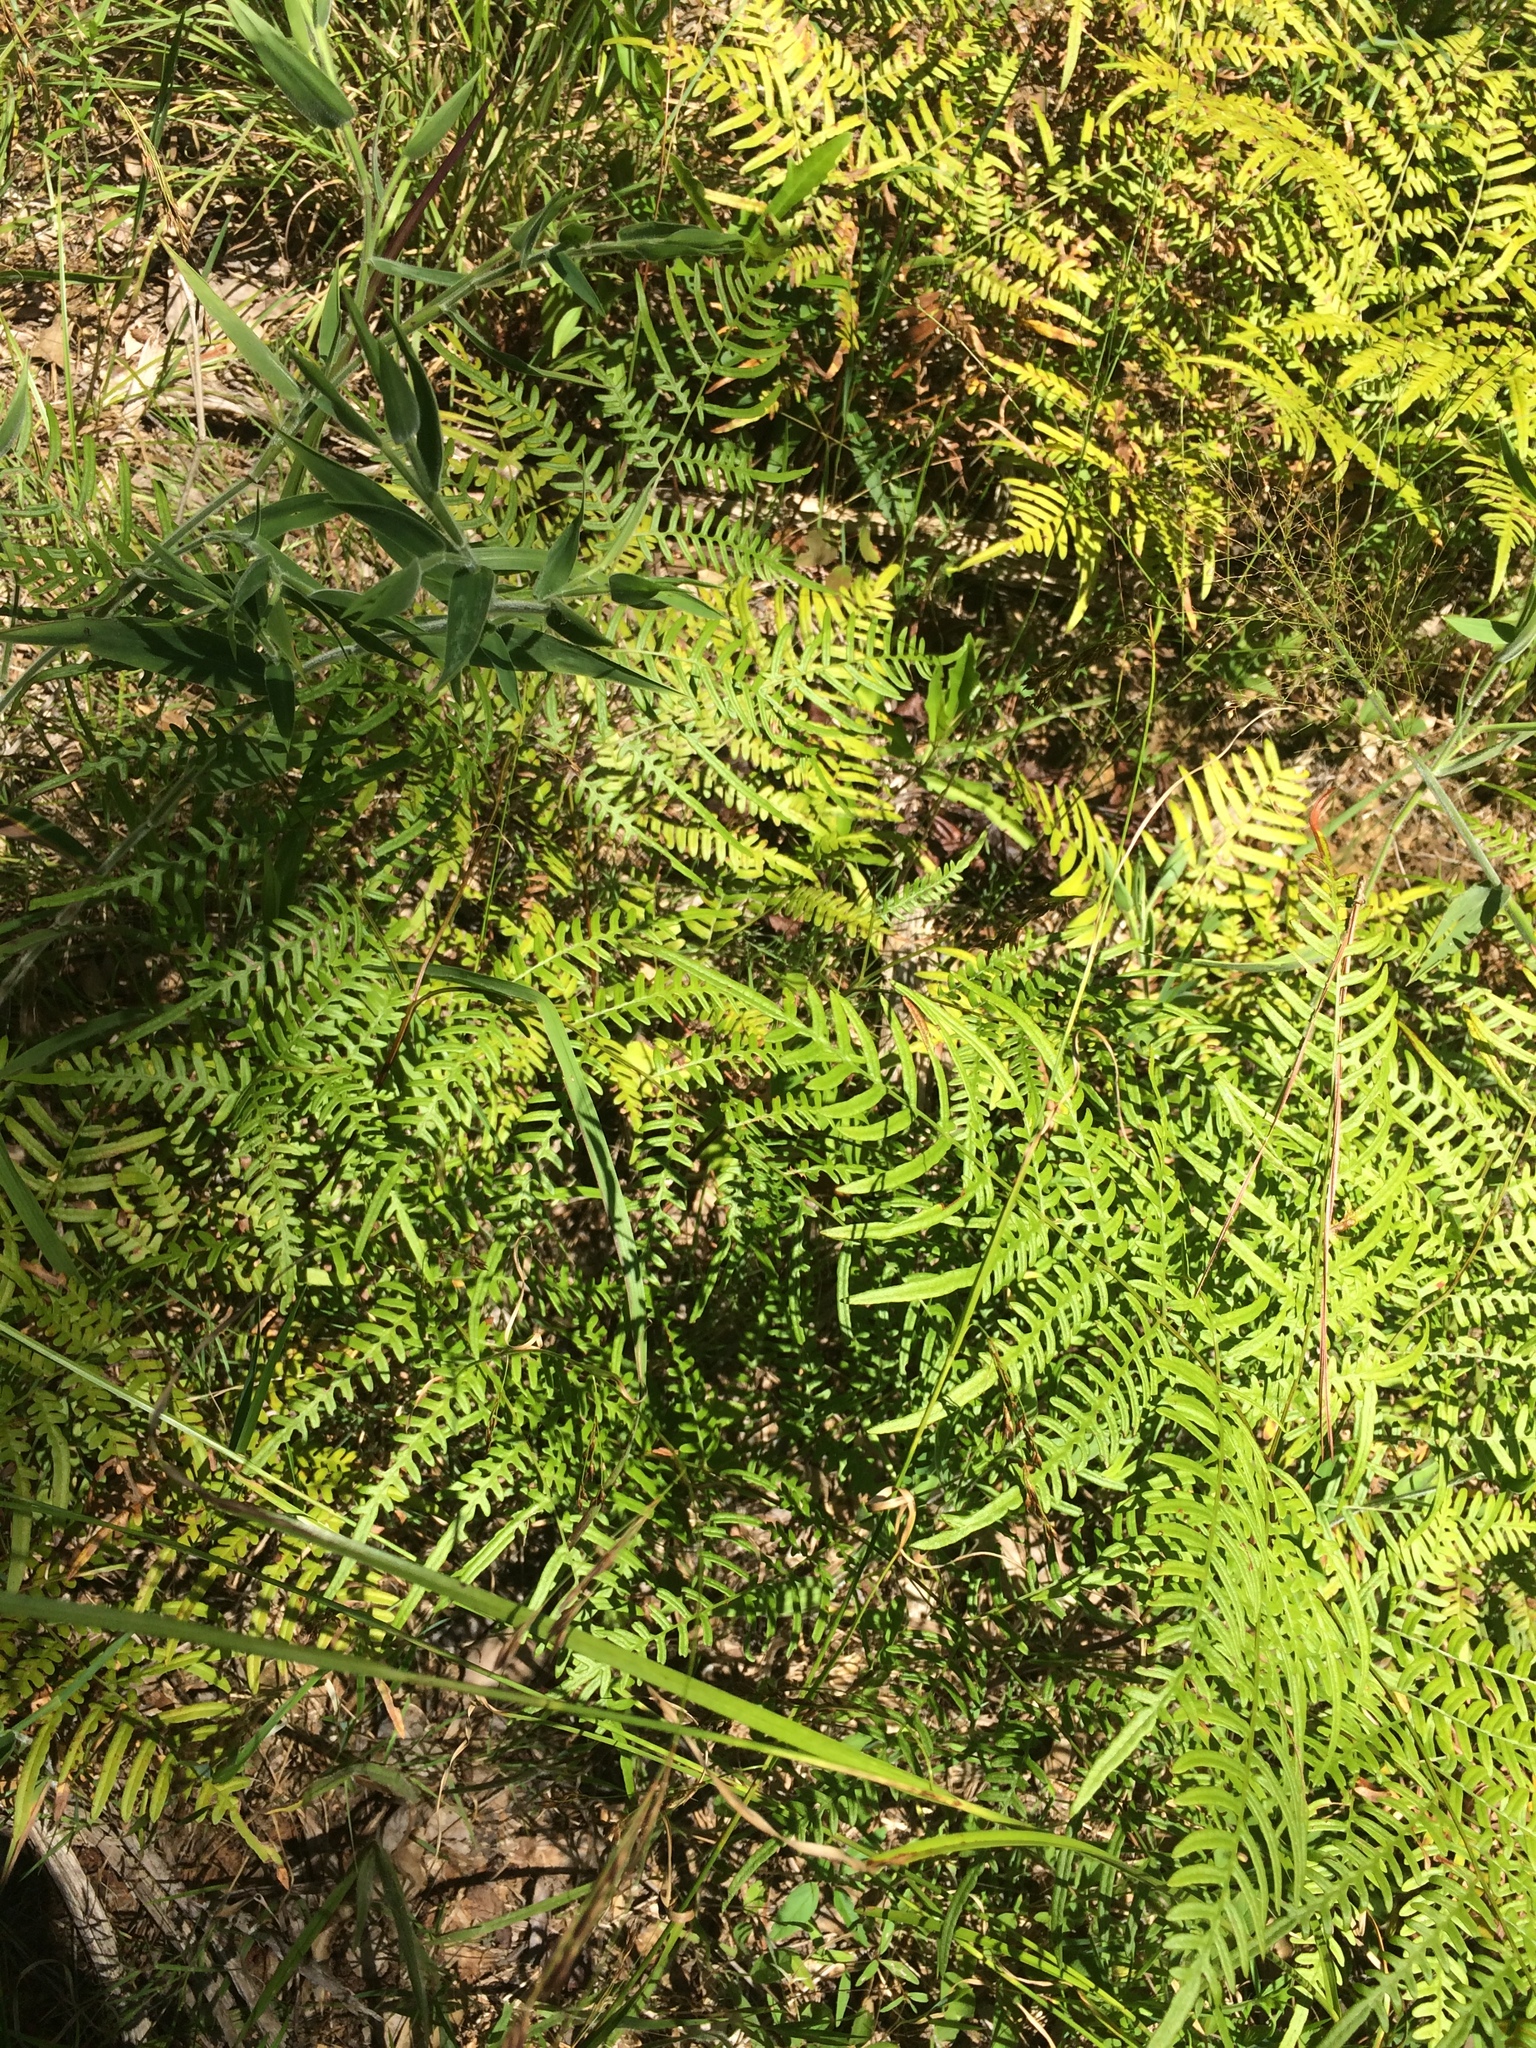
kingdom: Plantae
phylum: Tracheophyta
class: Polypodiopsida
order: Polypodiales
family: Dennstaedtiaceae
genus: Pteridium
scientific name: Pteridium
